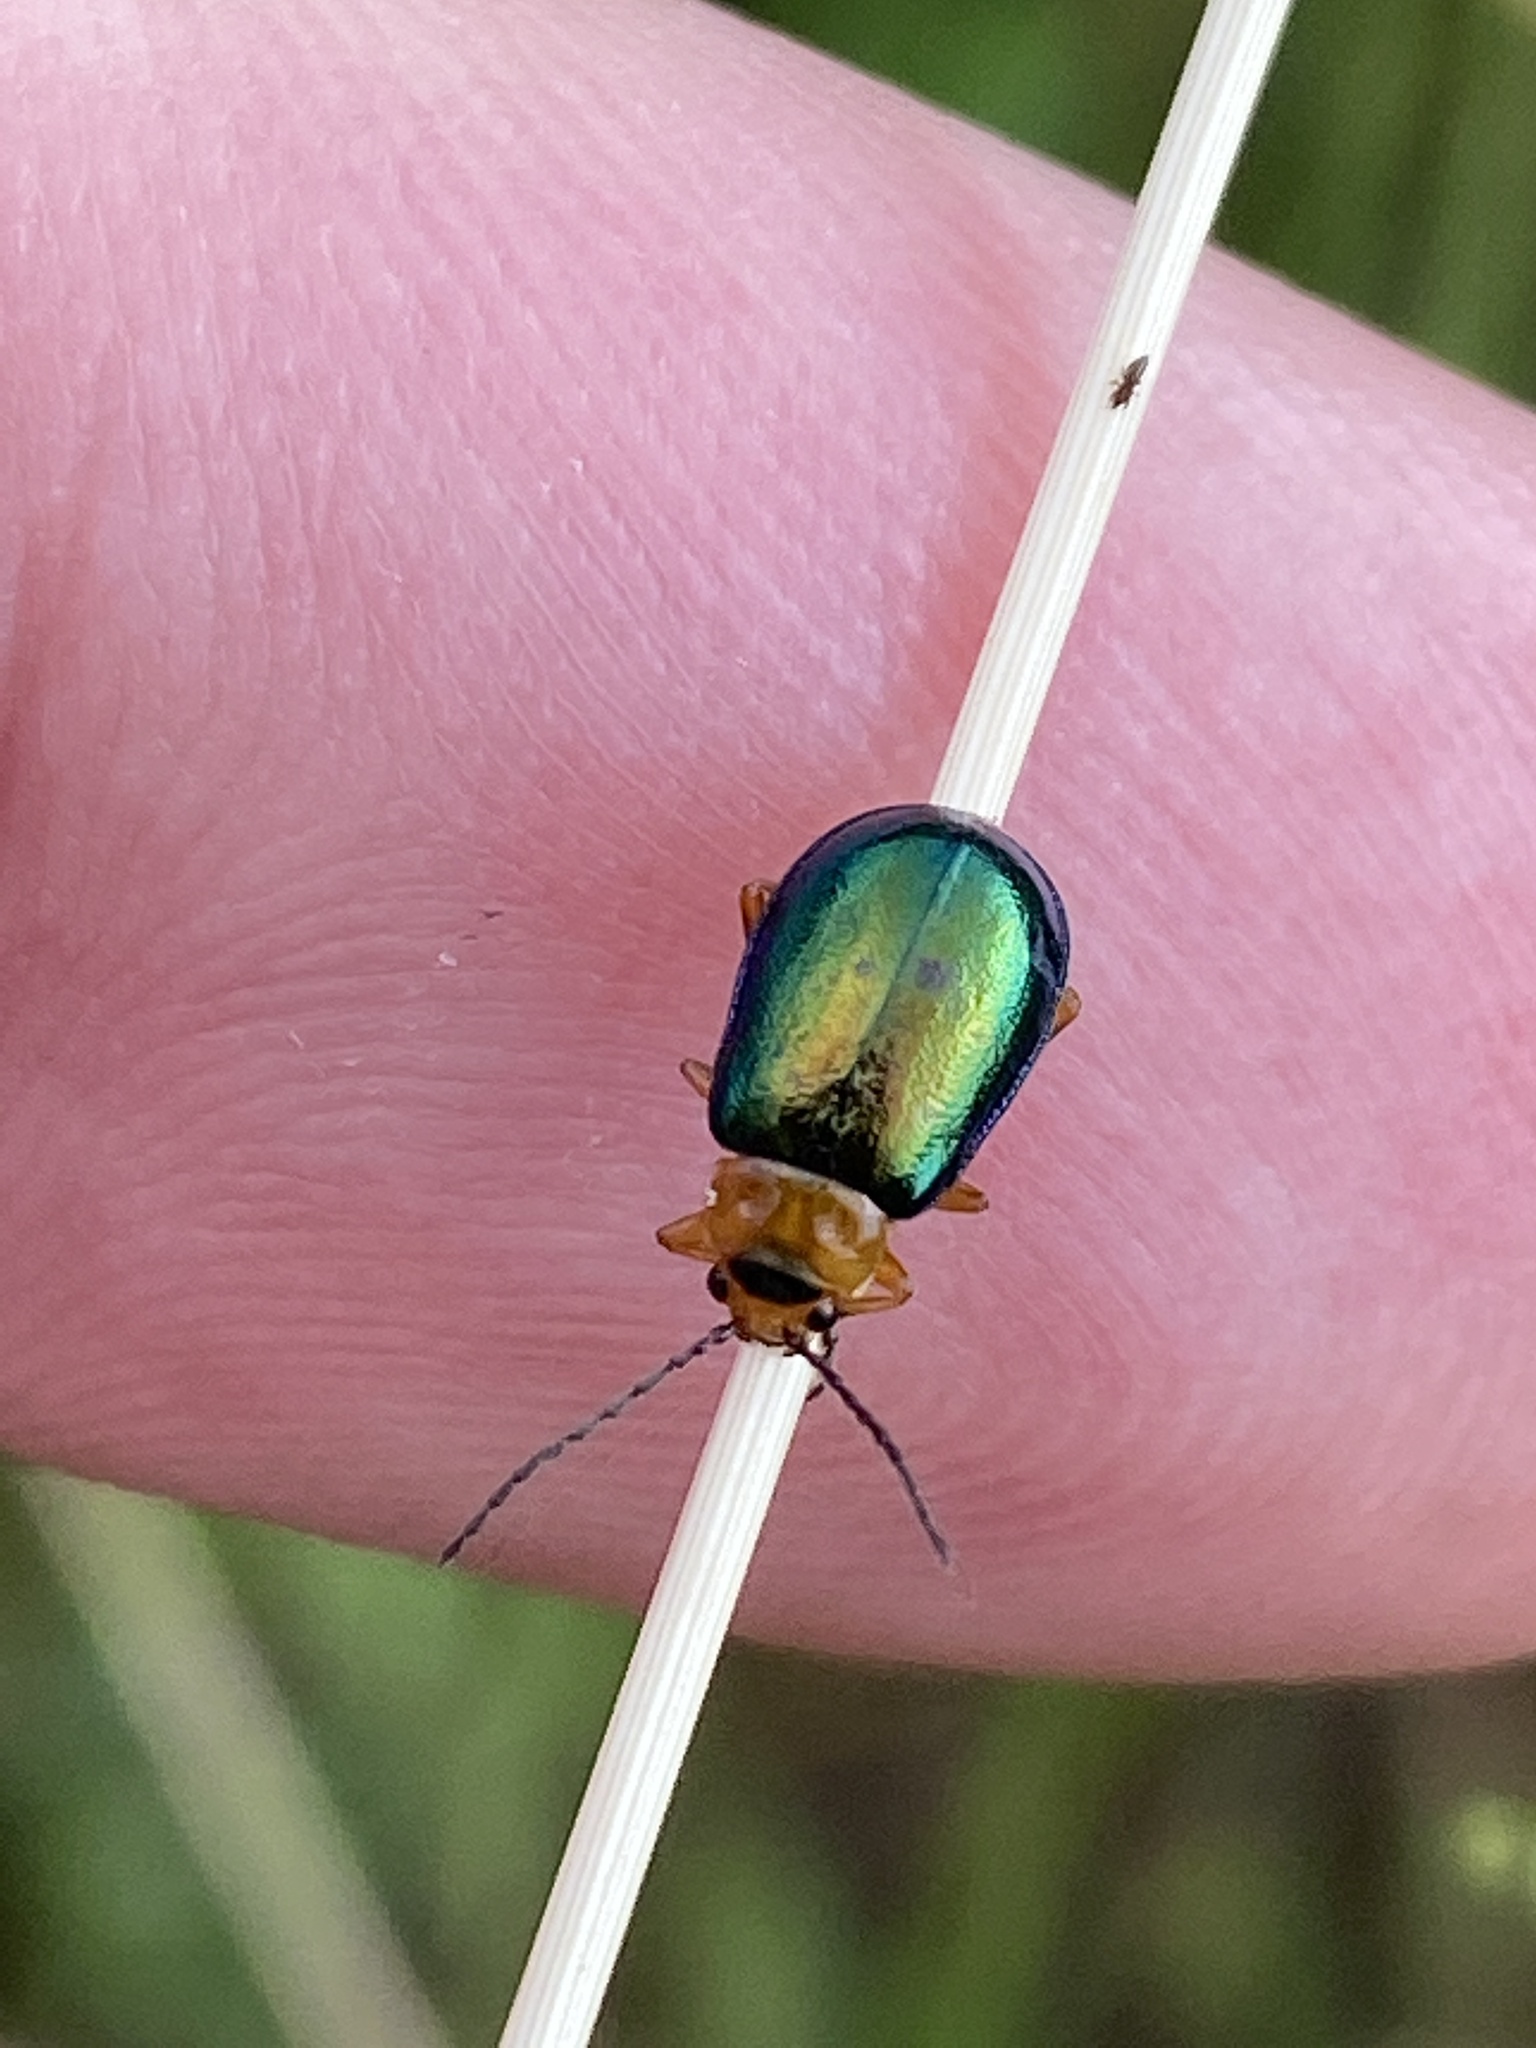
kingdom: Animalia
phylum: Arthropoda
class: Insecta
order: Coleoptera
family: Chrysomelidae
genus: Sermylassa
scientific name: Sermylassa halensis
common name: Leaf beetle
